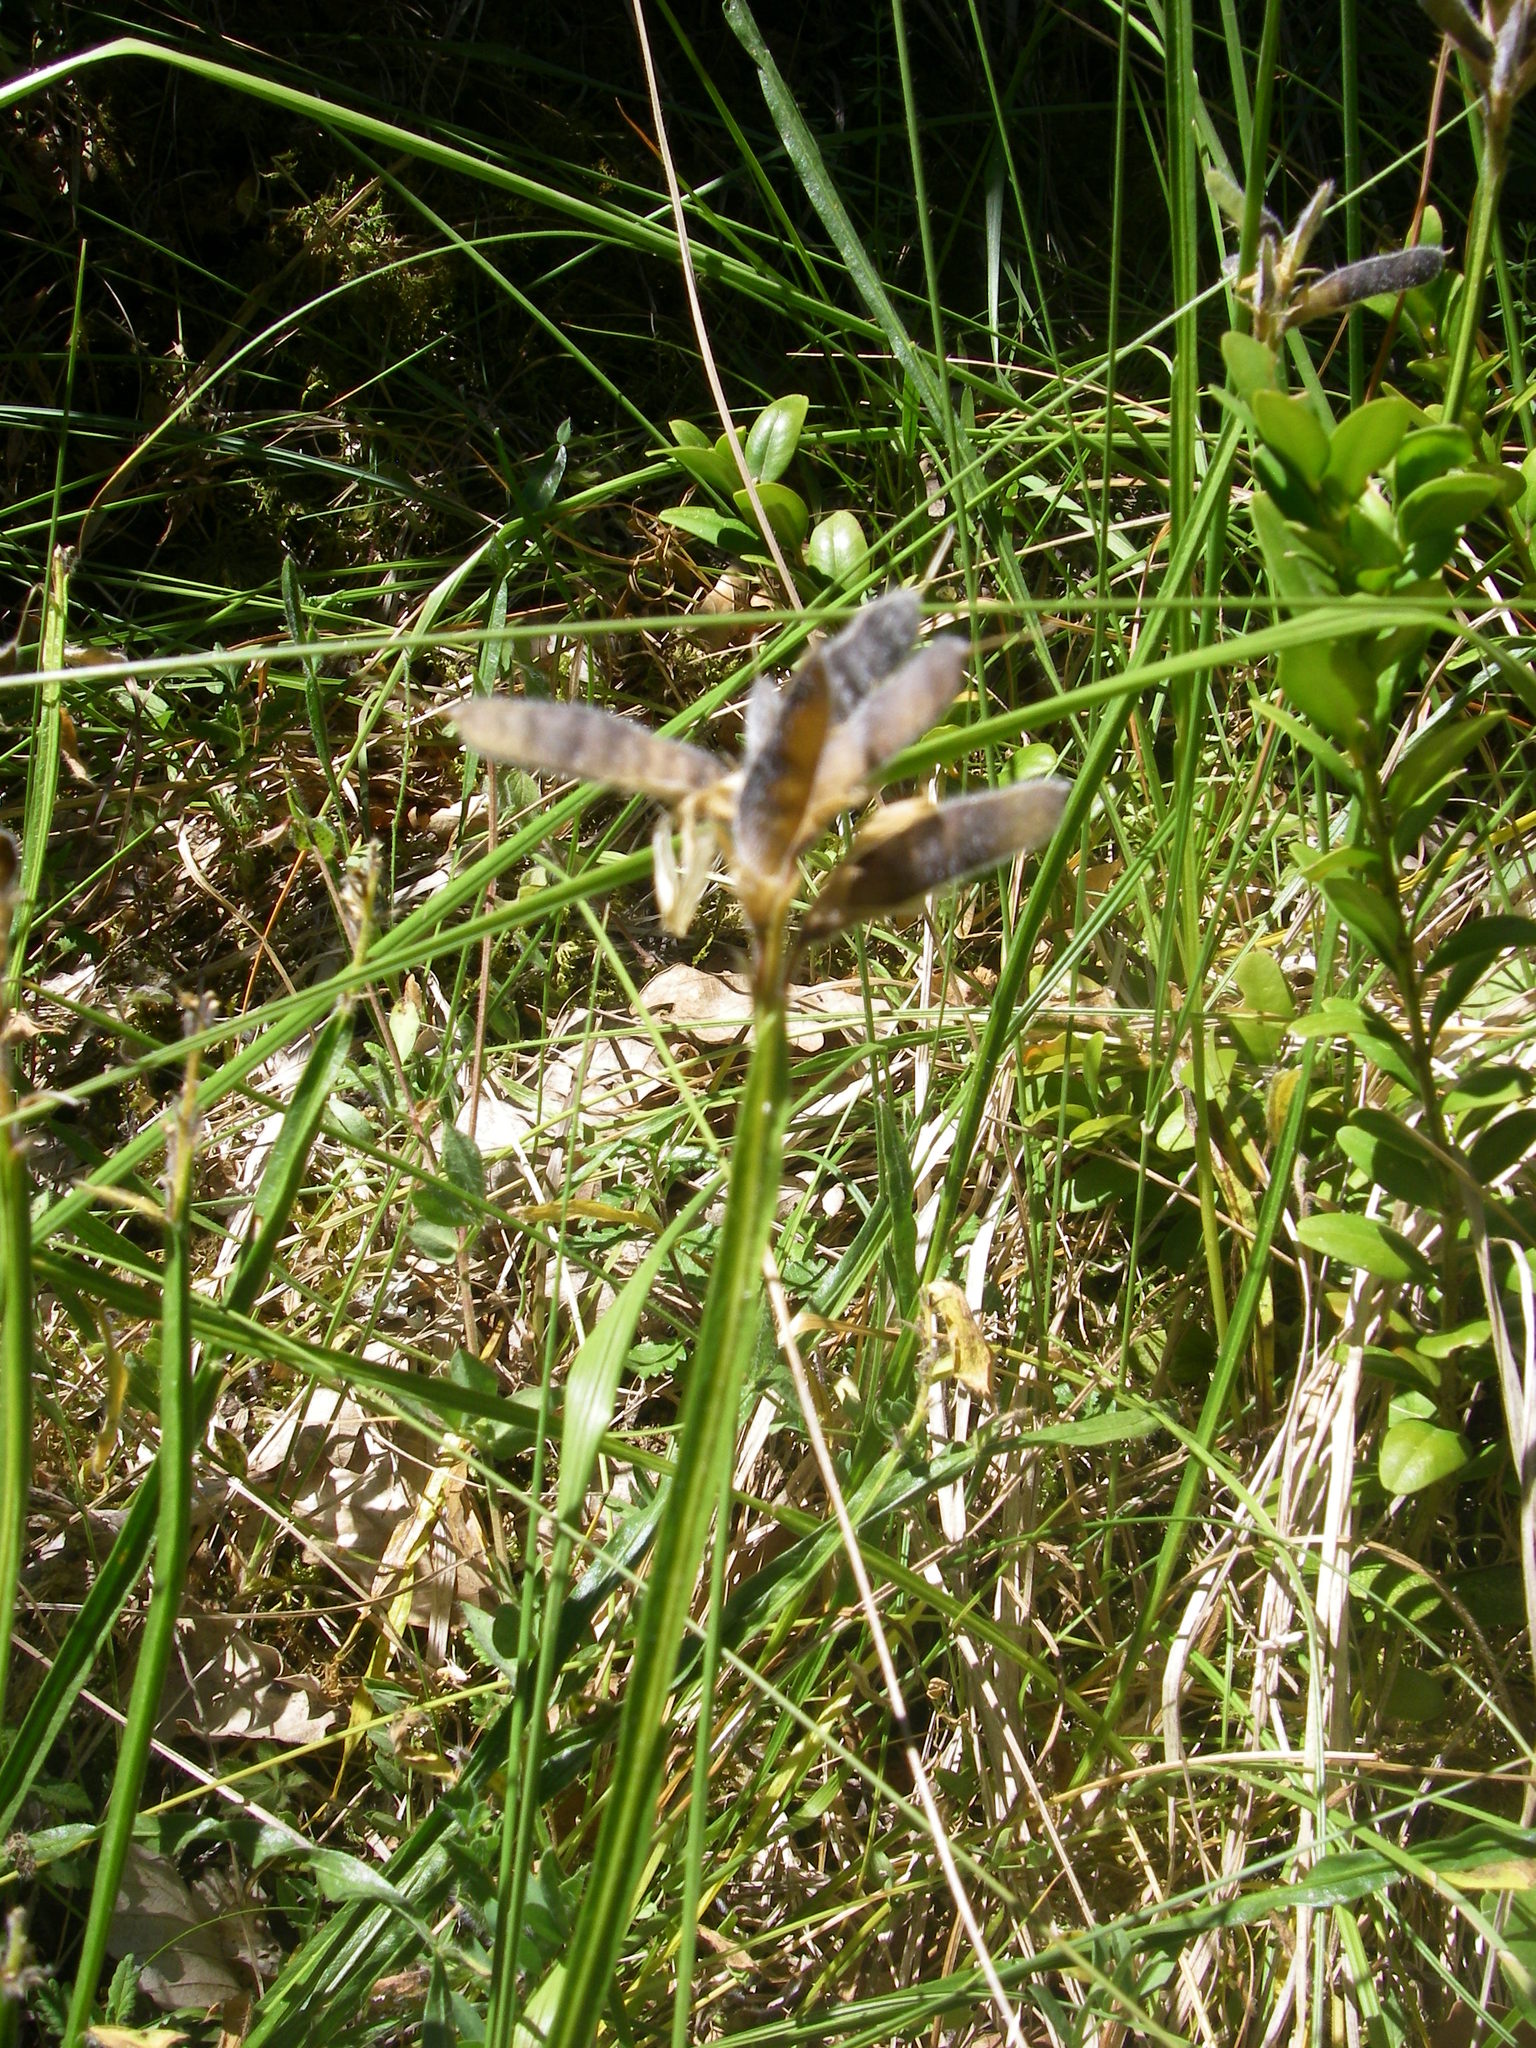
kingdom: Plantae
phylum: Tracheophyta
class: Magnoliopsida
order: Fabales
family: Fabaceae
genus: Genista
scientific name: Genista sagittalis
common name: Winged greenweed
